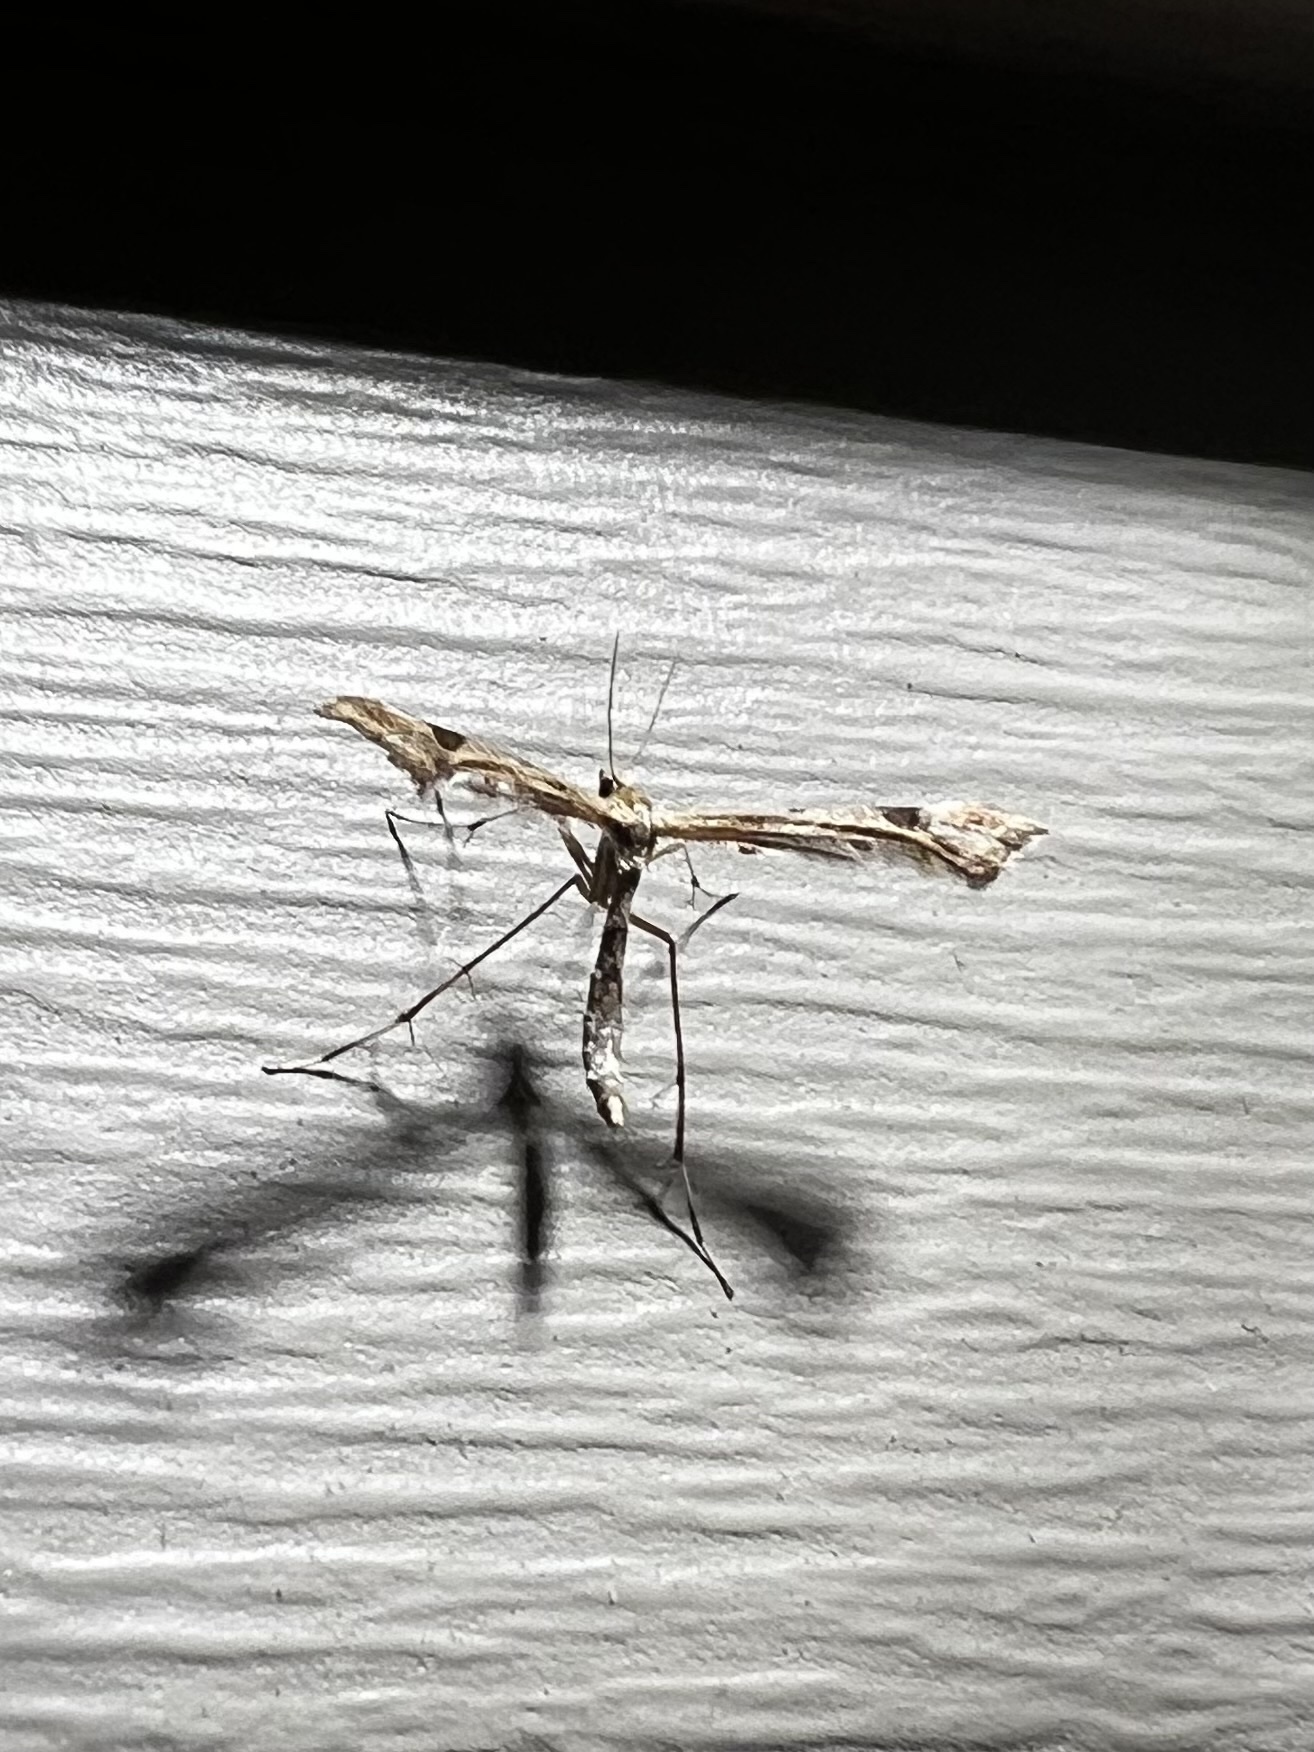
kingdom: Animalia
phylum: Arthropoda
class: Insecta
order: Lepidoptera
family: Pterophoridae
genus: Amblyptilia
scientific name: Amblyptilia pica
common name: Geranium plume moth
